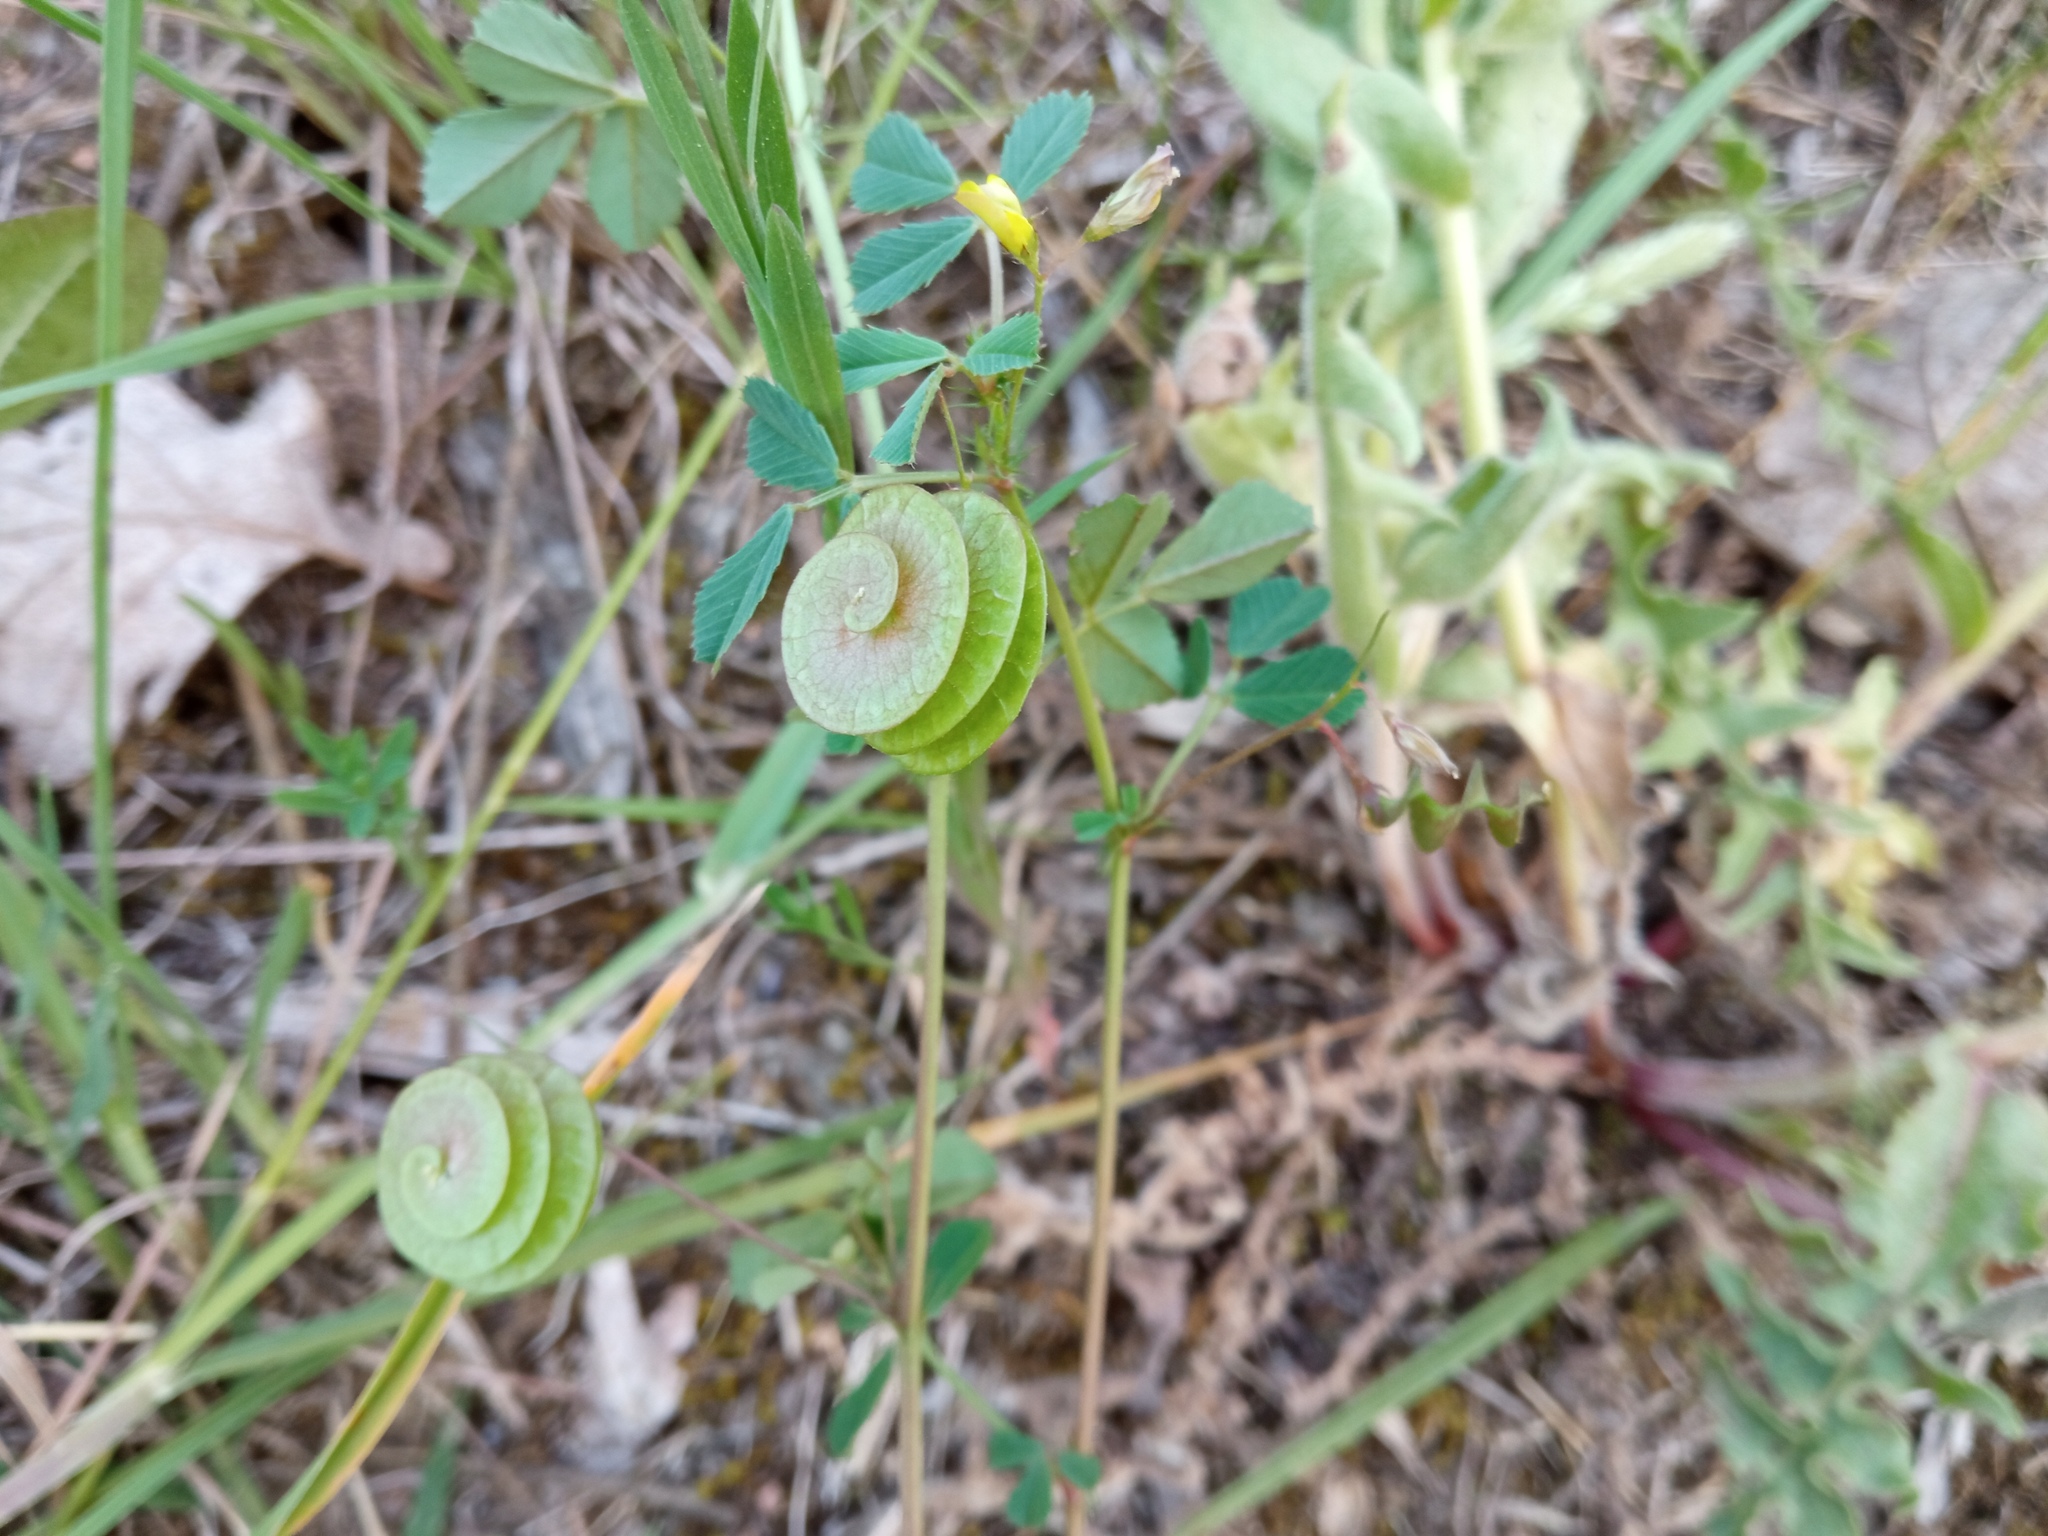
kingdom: Plantae
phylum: Tracheophyta
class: Magnoliopsida
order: Fabales
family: Fabaceae
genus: Medicago
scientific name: Medicago orbicularis
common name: Button medick
